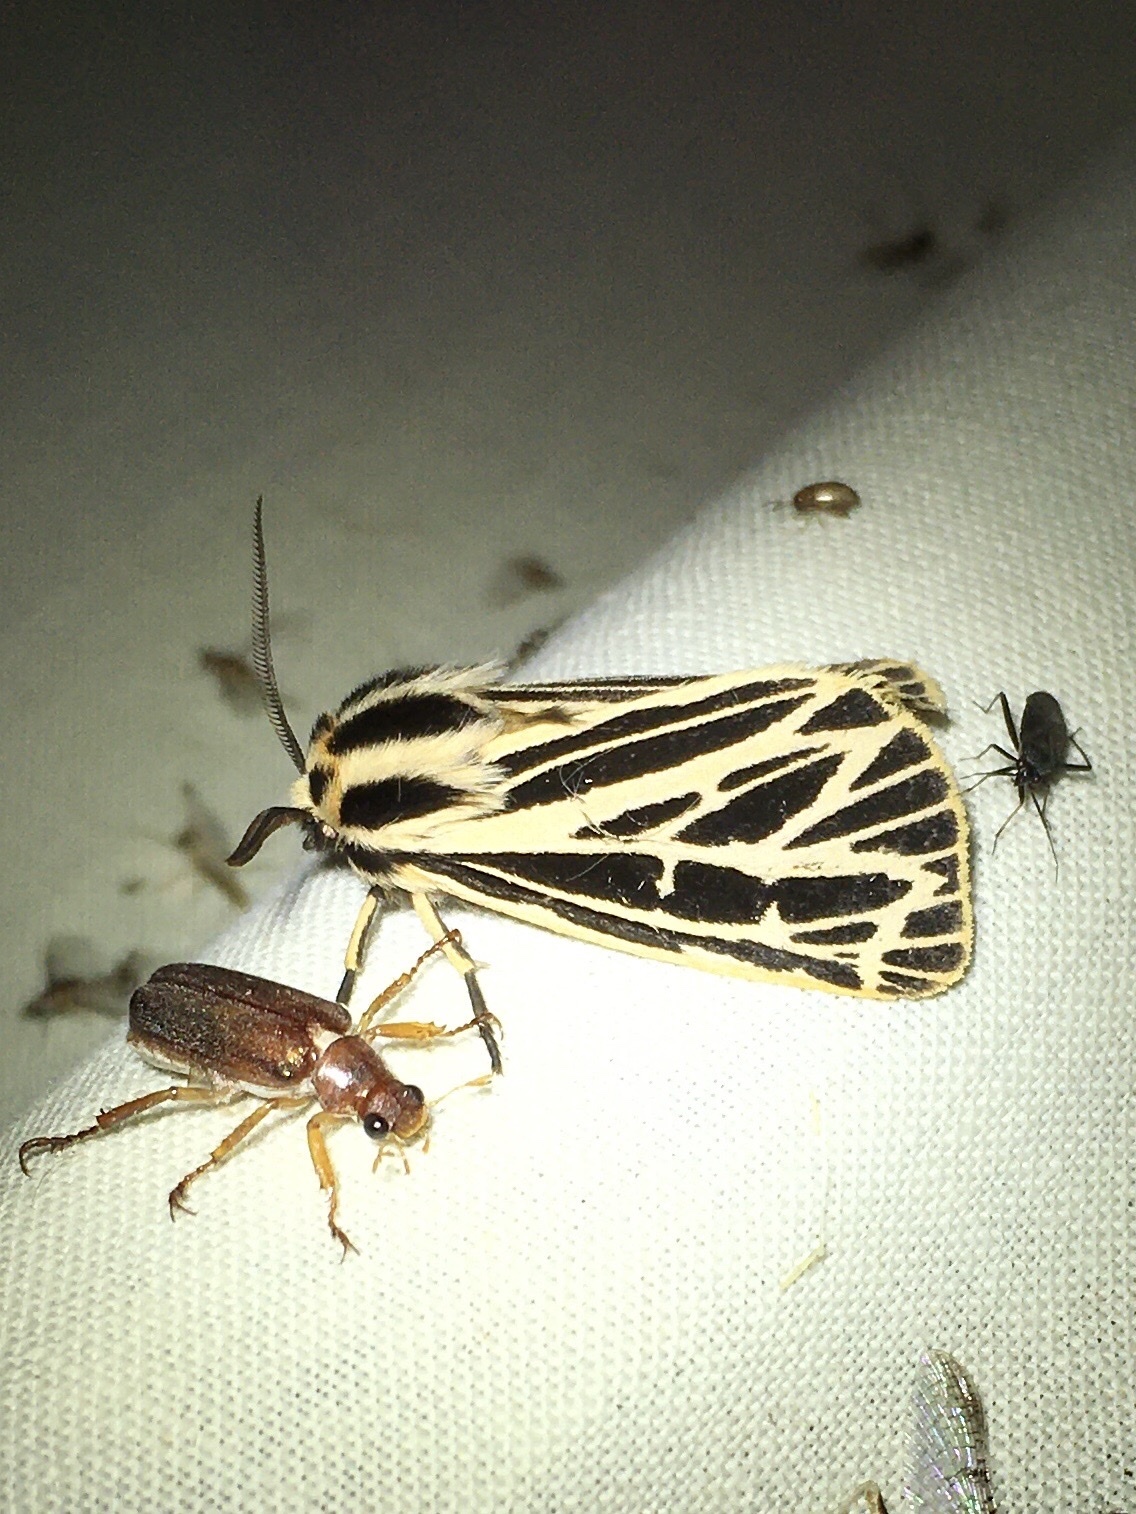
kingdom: Animalia
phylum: Arthropoda
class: Insecta
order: Lepidoptera
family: Erebidae
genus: Grammia
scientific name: Grammia virguncula
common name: Little tiger moth
